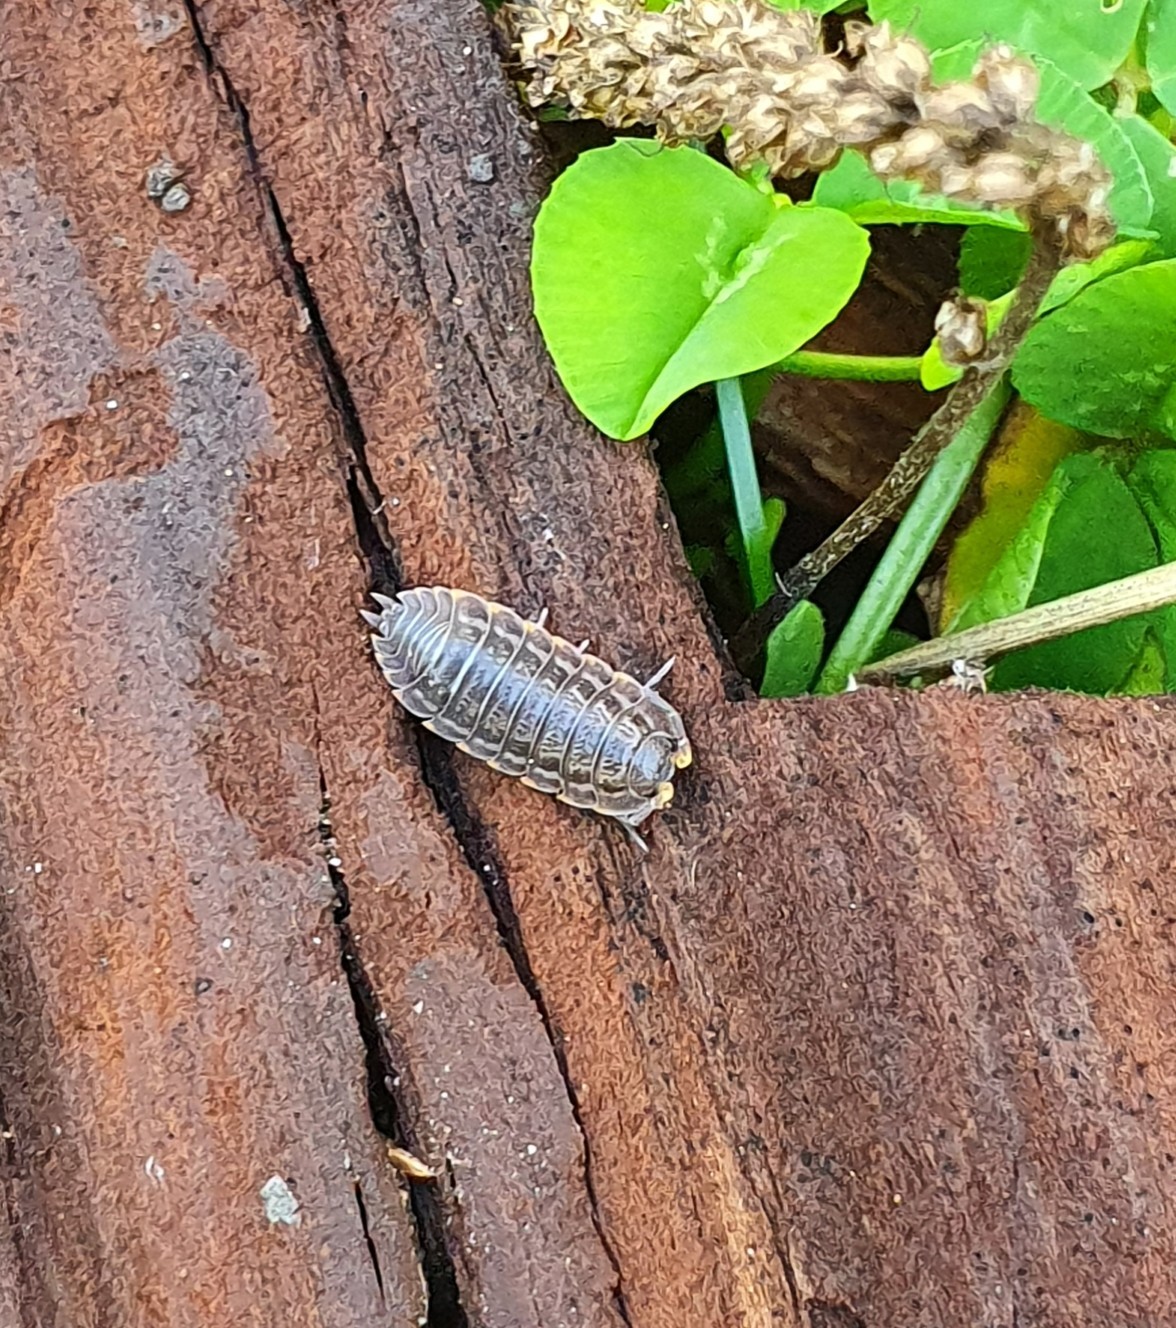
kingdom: Animalia
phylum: Arthropoda
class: Malacostraca
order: Isopoda
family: Trachelipodidae
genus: Trachelipus
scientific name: Trachelipus rathkii
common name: Isopod
